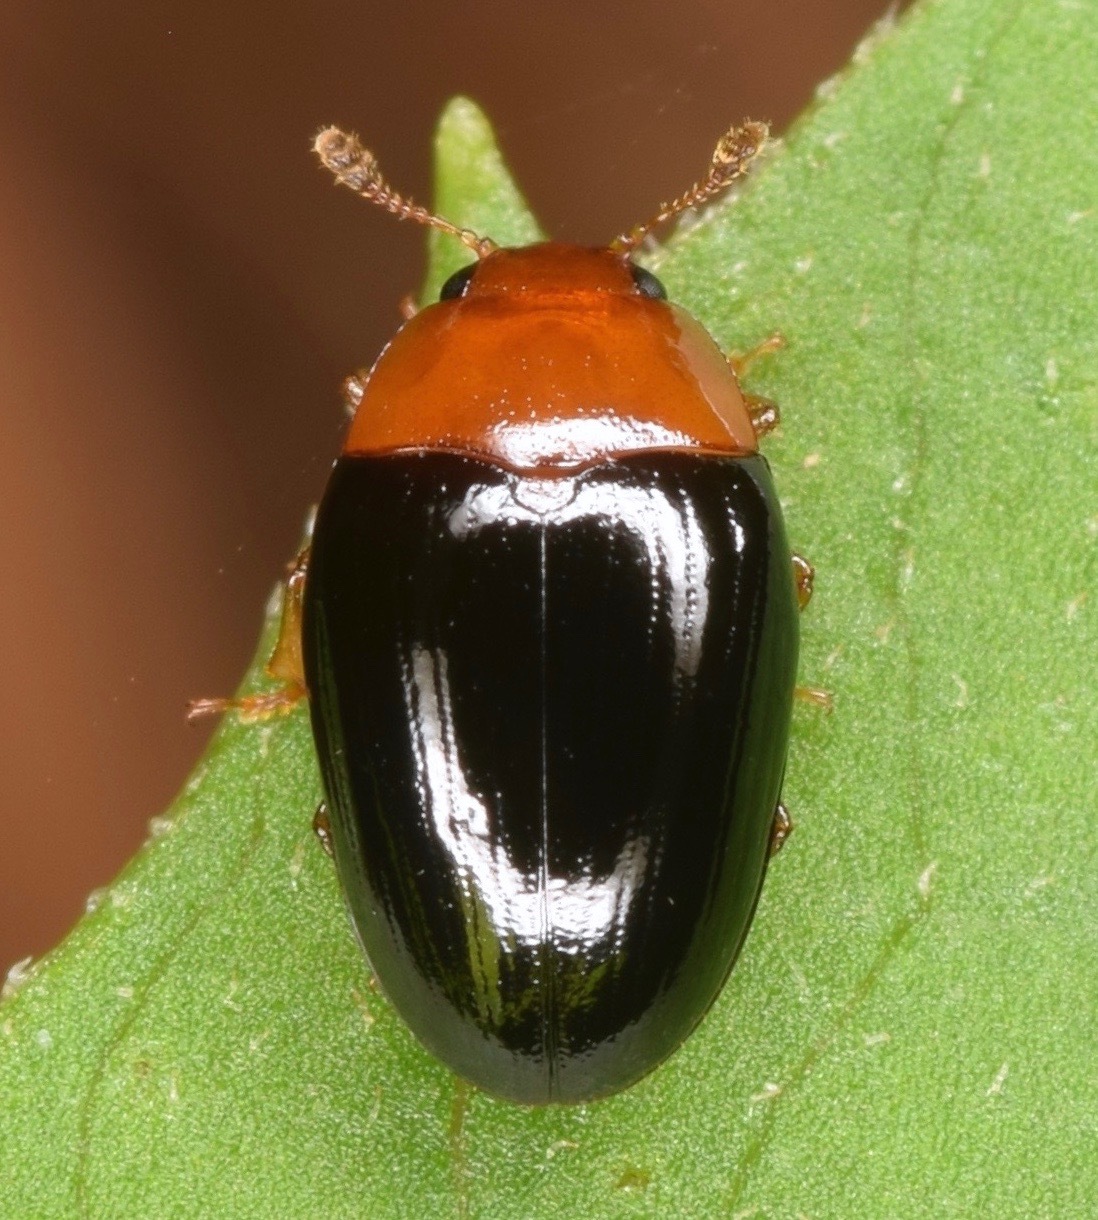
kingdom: Animalia
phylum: Arthropoda
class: Insecta
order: Coleoptera
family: Erotylidae
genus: Tritoma
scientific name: Tritoma biguttata
